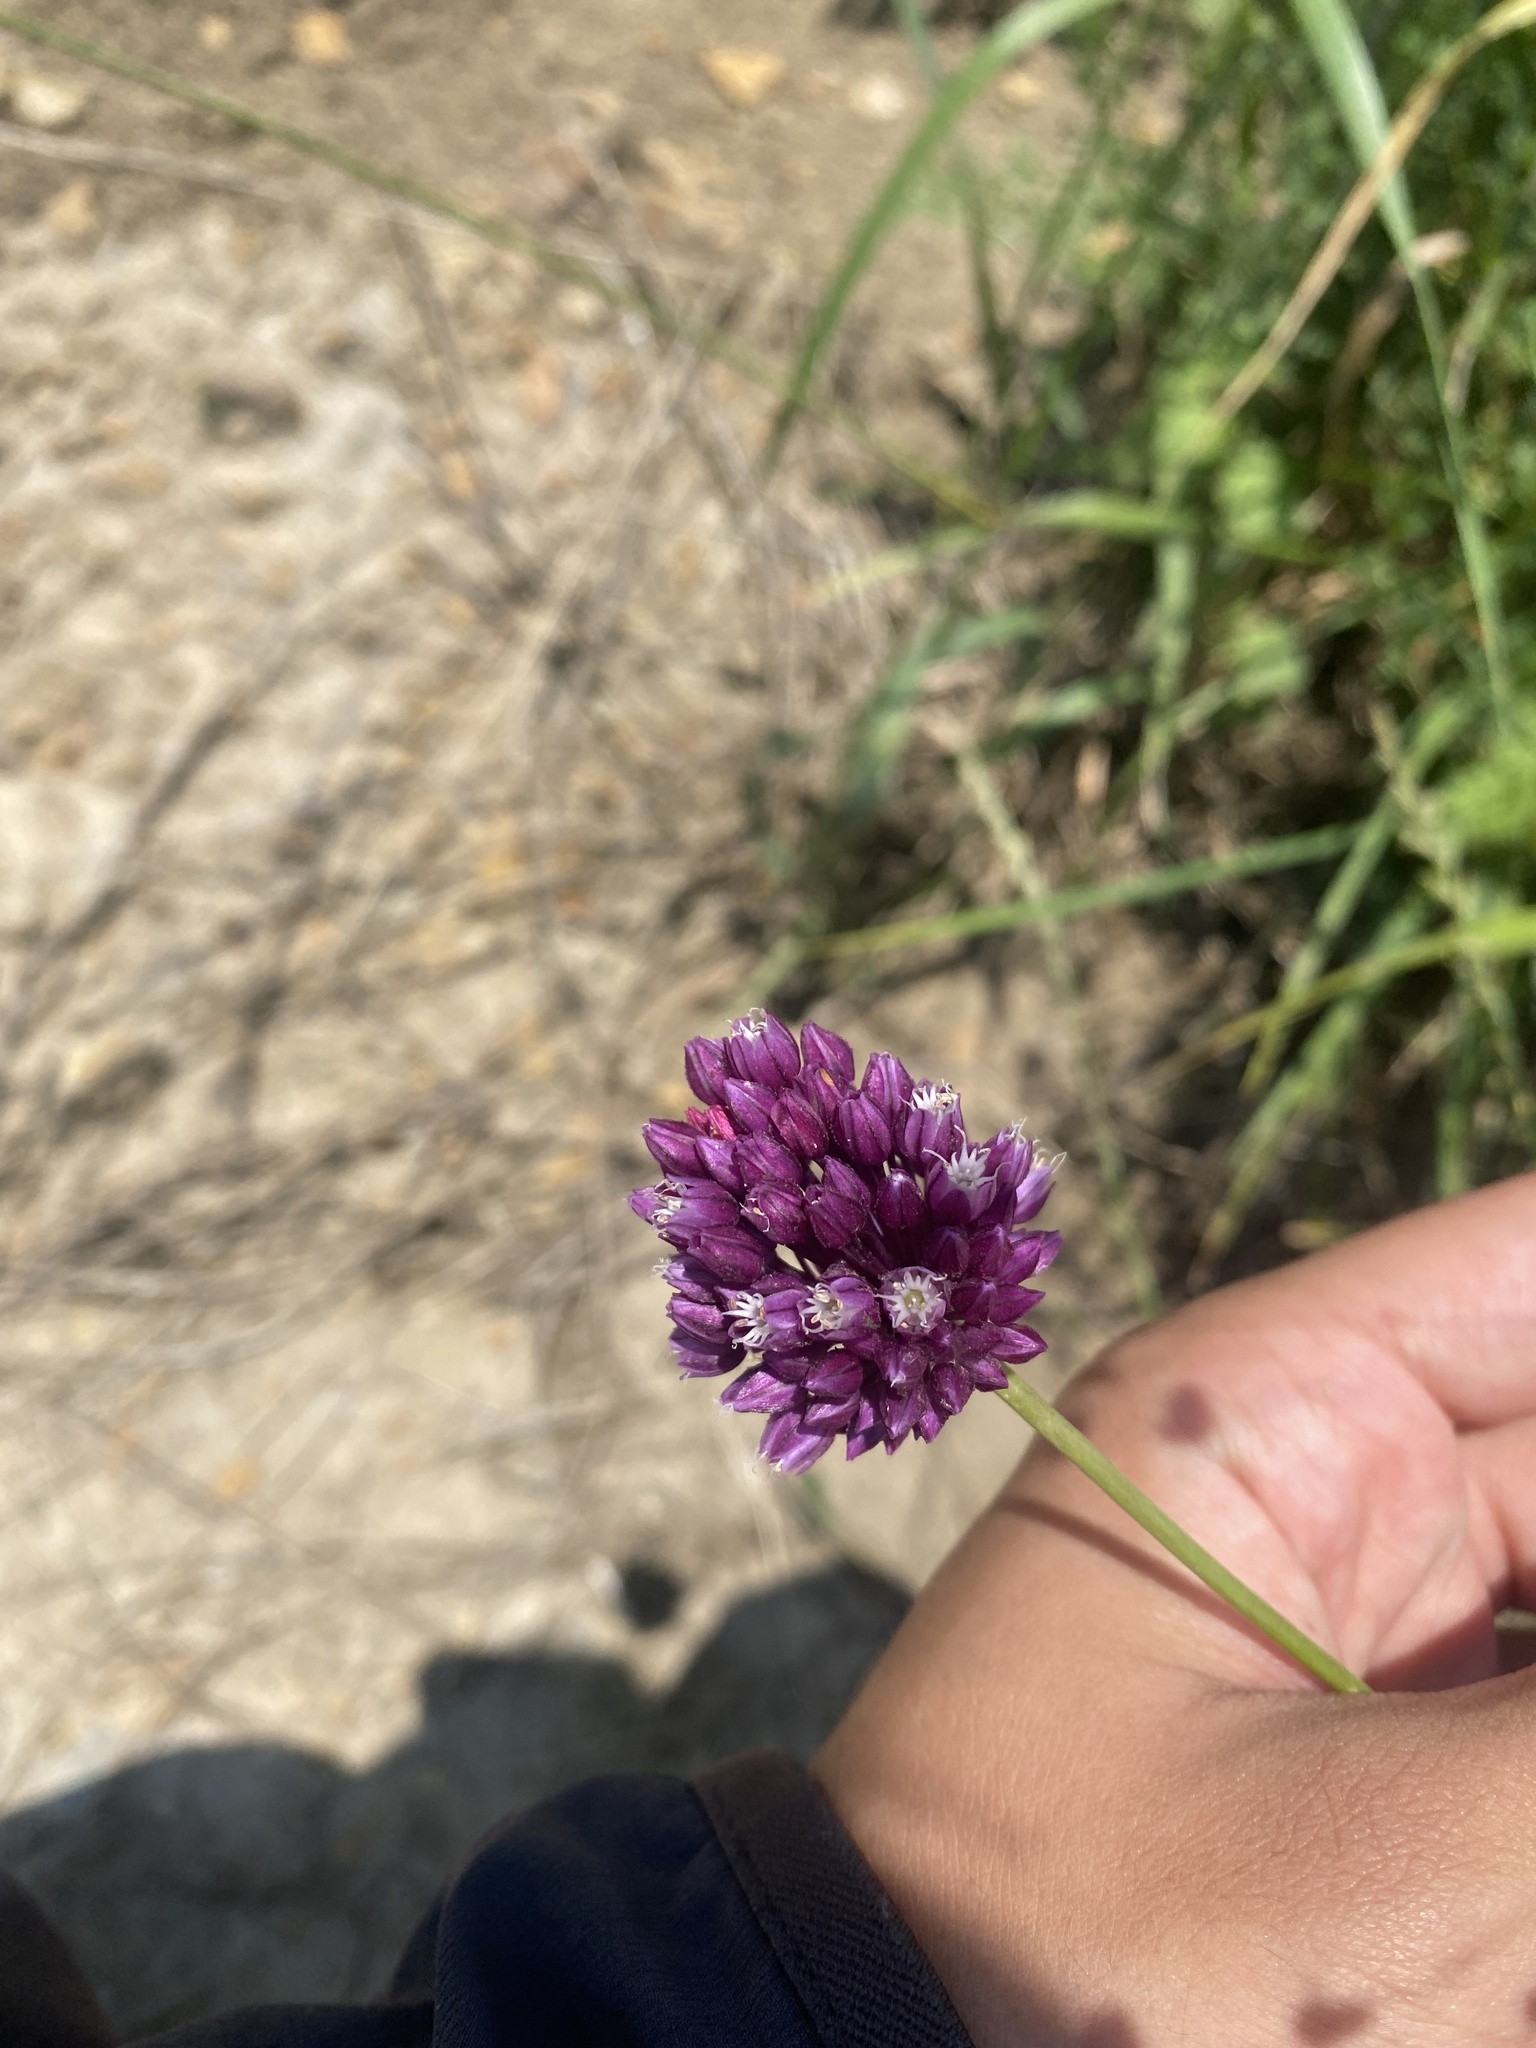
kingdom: Plantae
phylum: Tracheophyta
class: Liliopsida
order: Asparagales
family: Amaryllidaceae
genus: Allium
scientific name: Allium rotundum
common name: Sand leek
